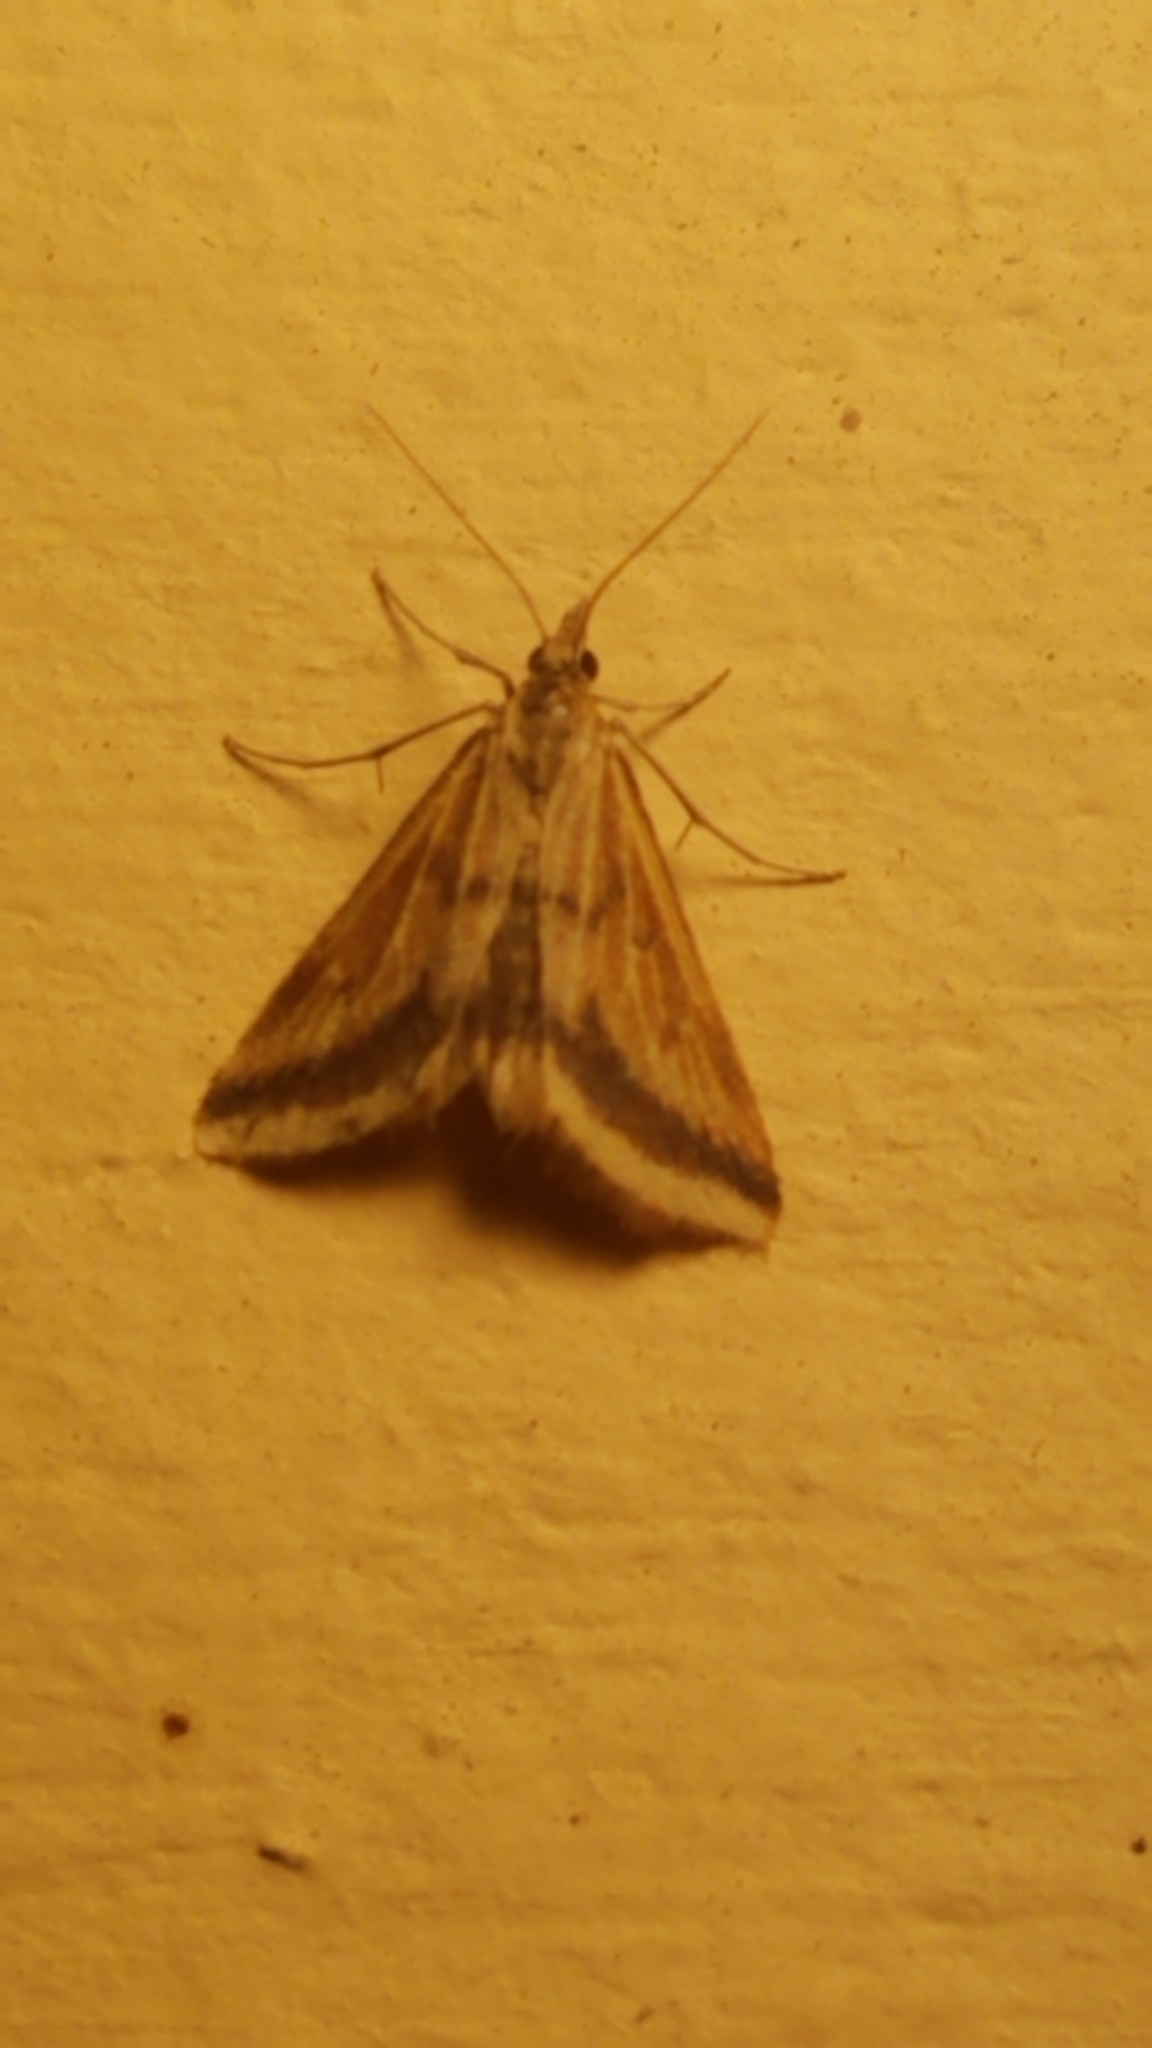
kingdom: Animalia
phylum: Arthropoda
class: Insecta
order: Lepidoptera
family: Crambidae
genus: Microtheoris
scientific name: Microtheoris ophionalis
